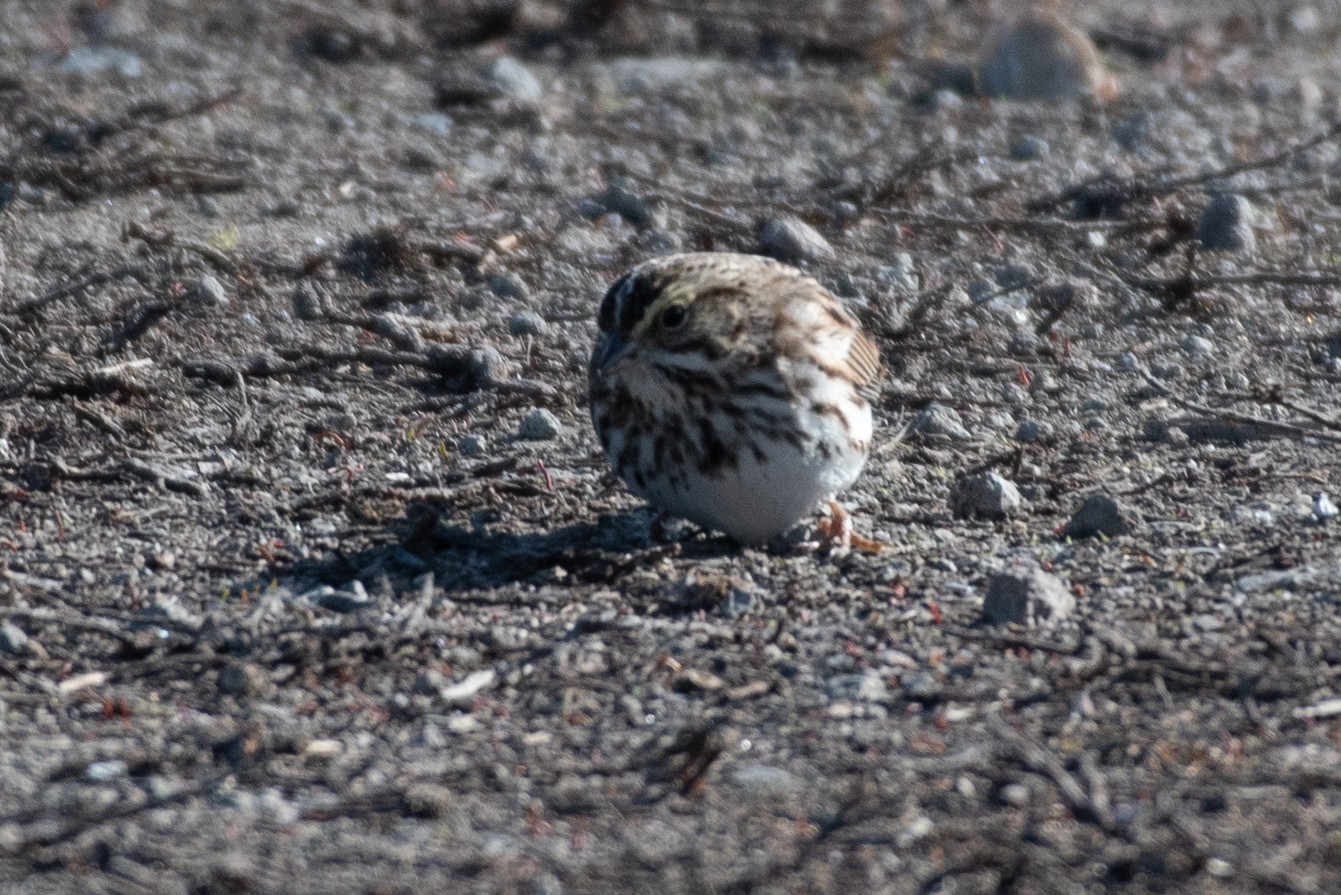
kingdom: Animalia
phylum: Chordata
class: Aves
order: Passeriformes
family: Passerellidae
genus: Passerculus
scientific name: Passerculus sandwichensis
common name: Savannah sparrow
